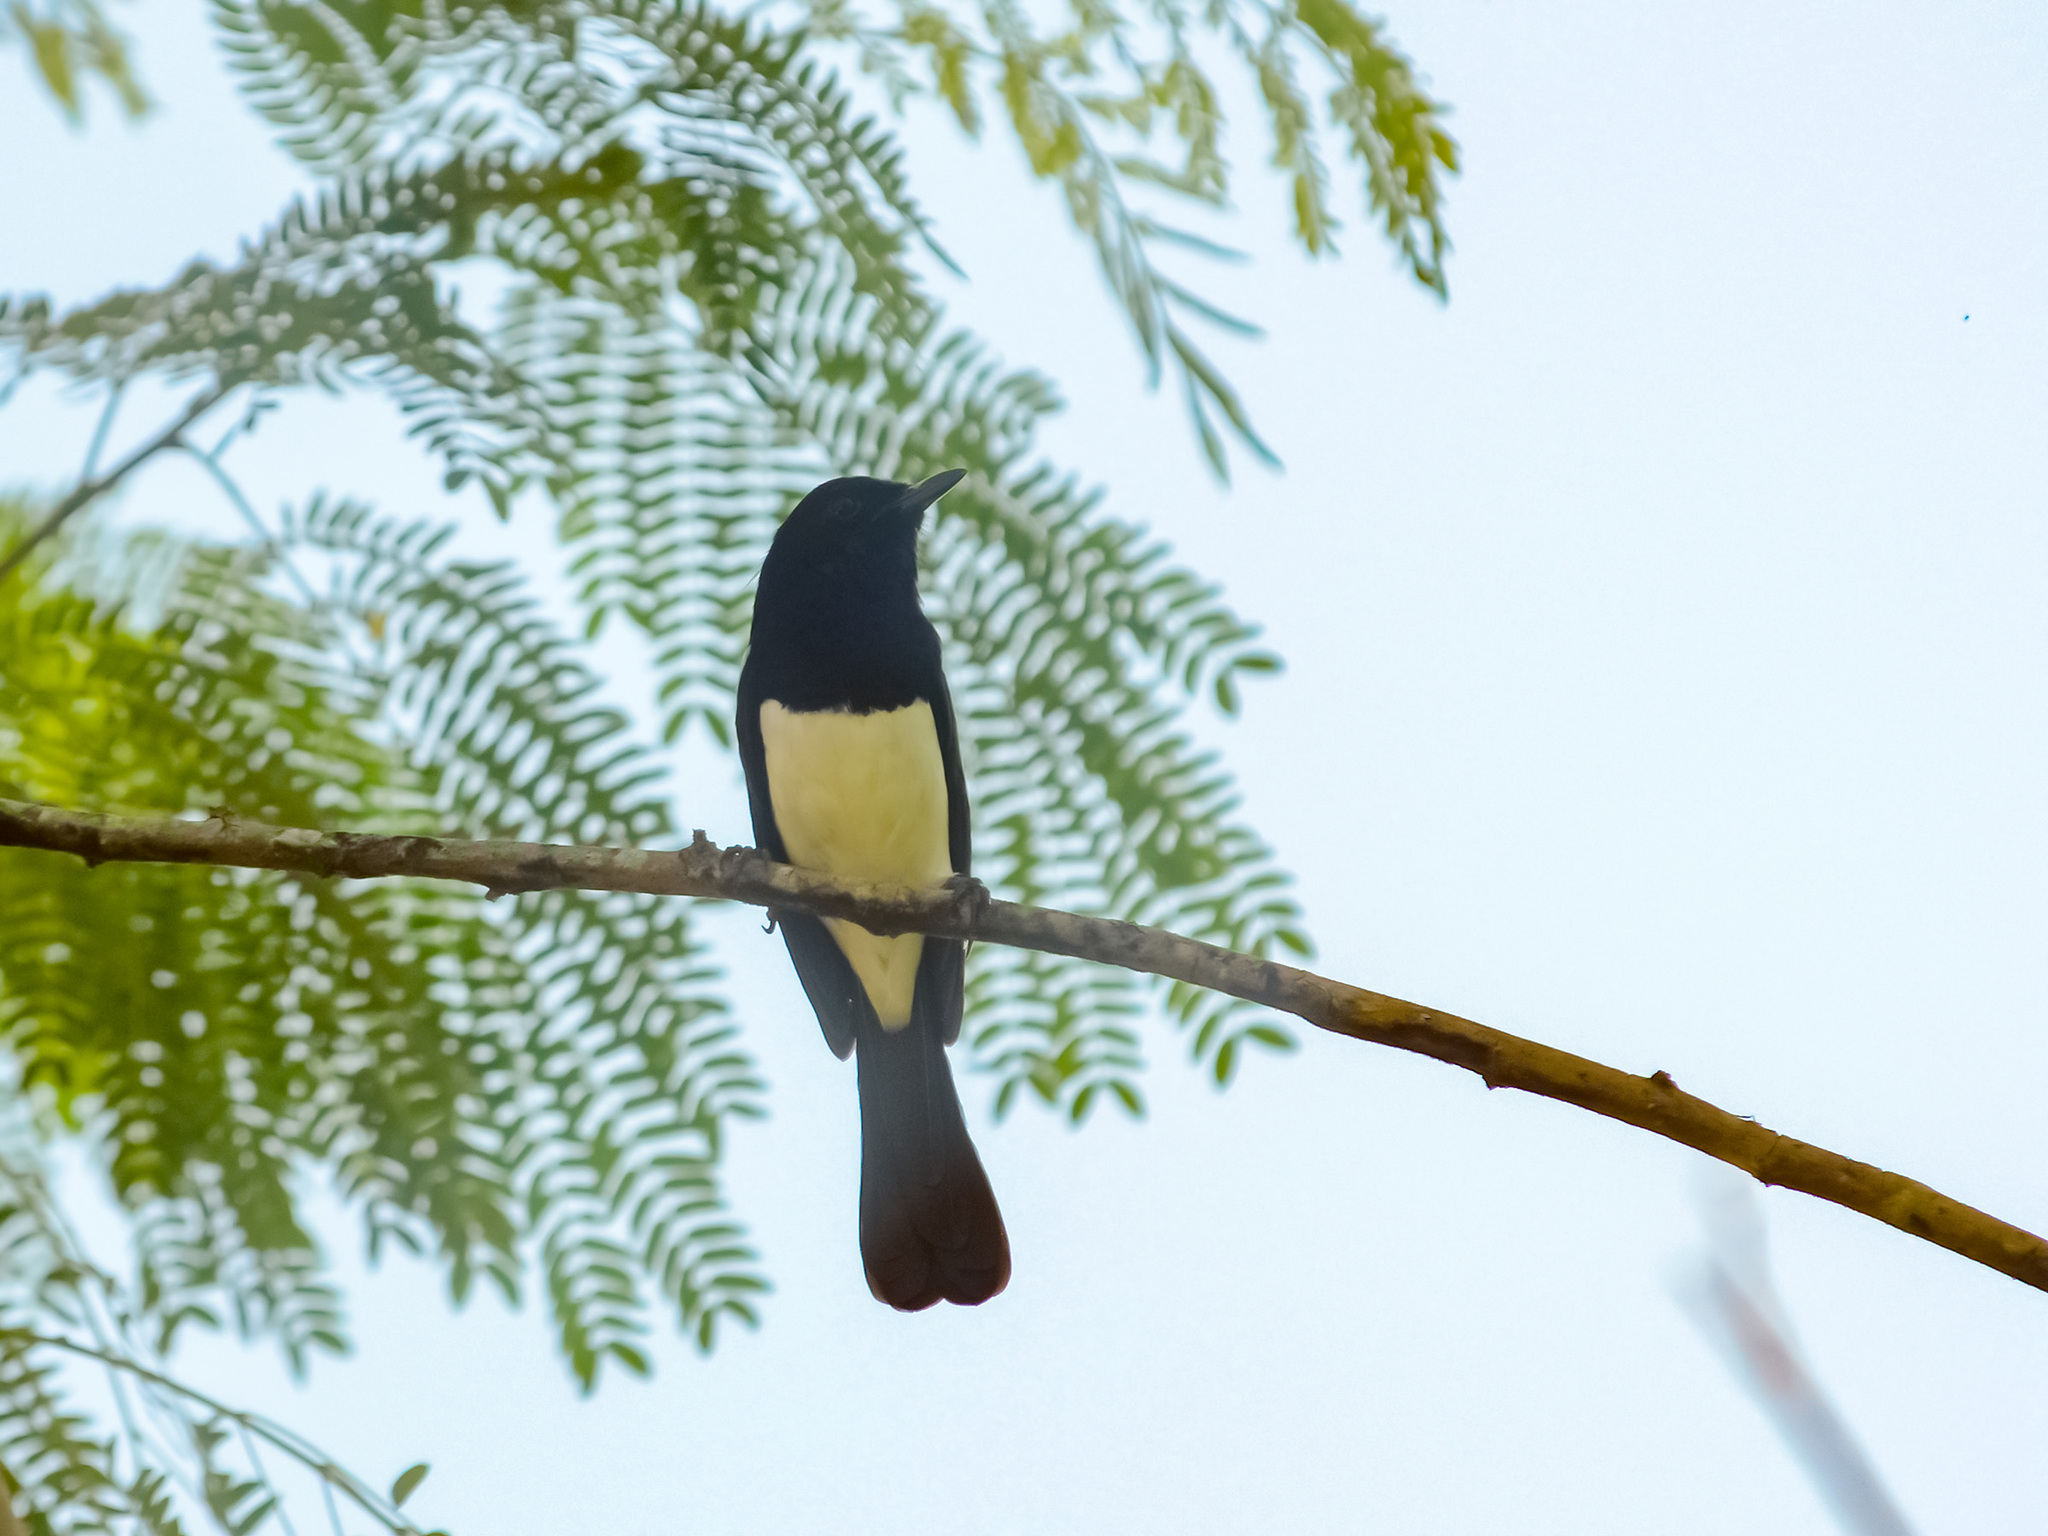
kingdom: Animalia
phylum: Chordata
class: Aves
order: Passeriformes
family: Muscicapidae
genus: Copsychus
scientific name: Copsychus mindanensis
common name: Philippine magpie-robin
